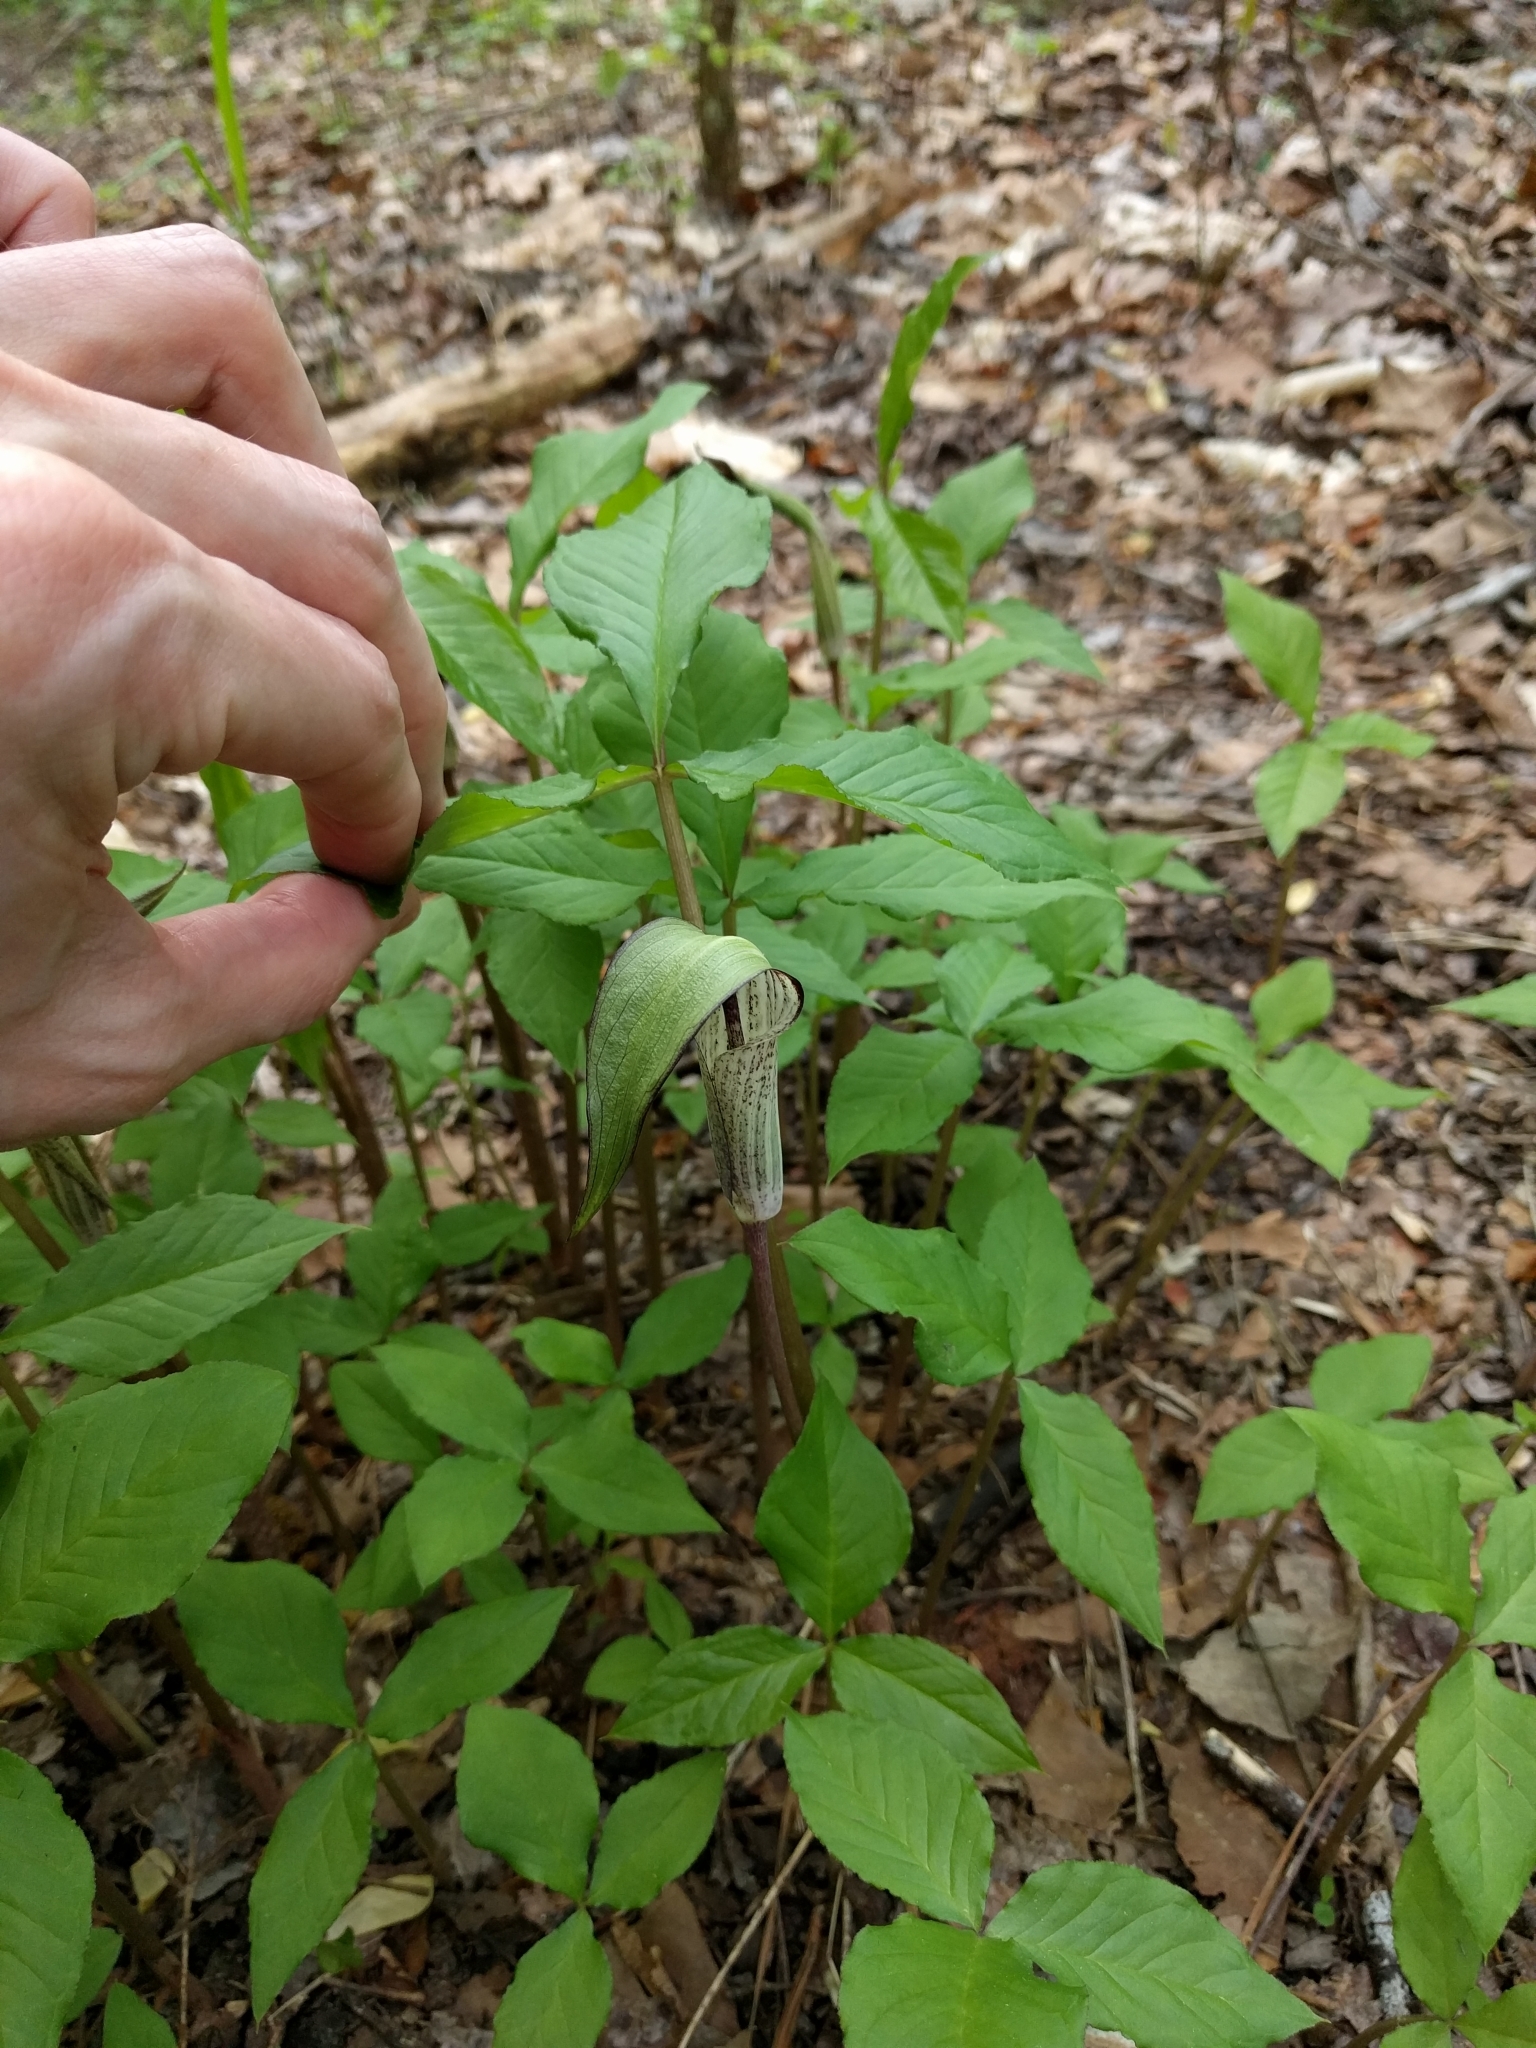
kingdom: Plantae
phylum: Tracheophyta
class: Liliopsida
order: Alismatales
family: Araceae
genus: Arisaema
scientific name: Arisaema triphyllum
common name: Jack-in-the-pulpit
